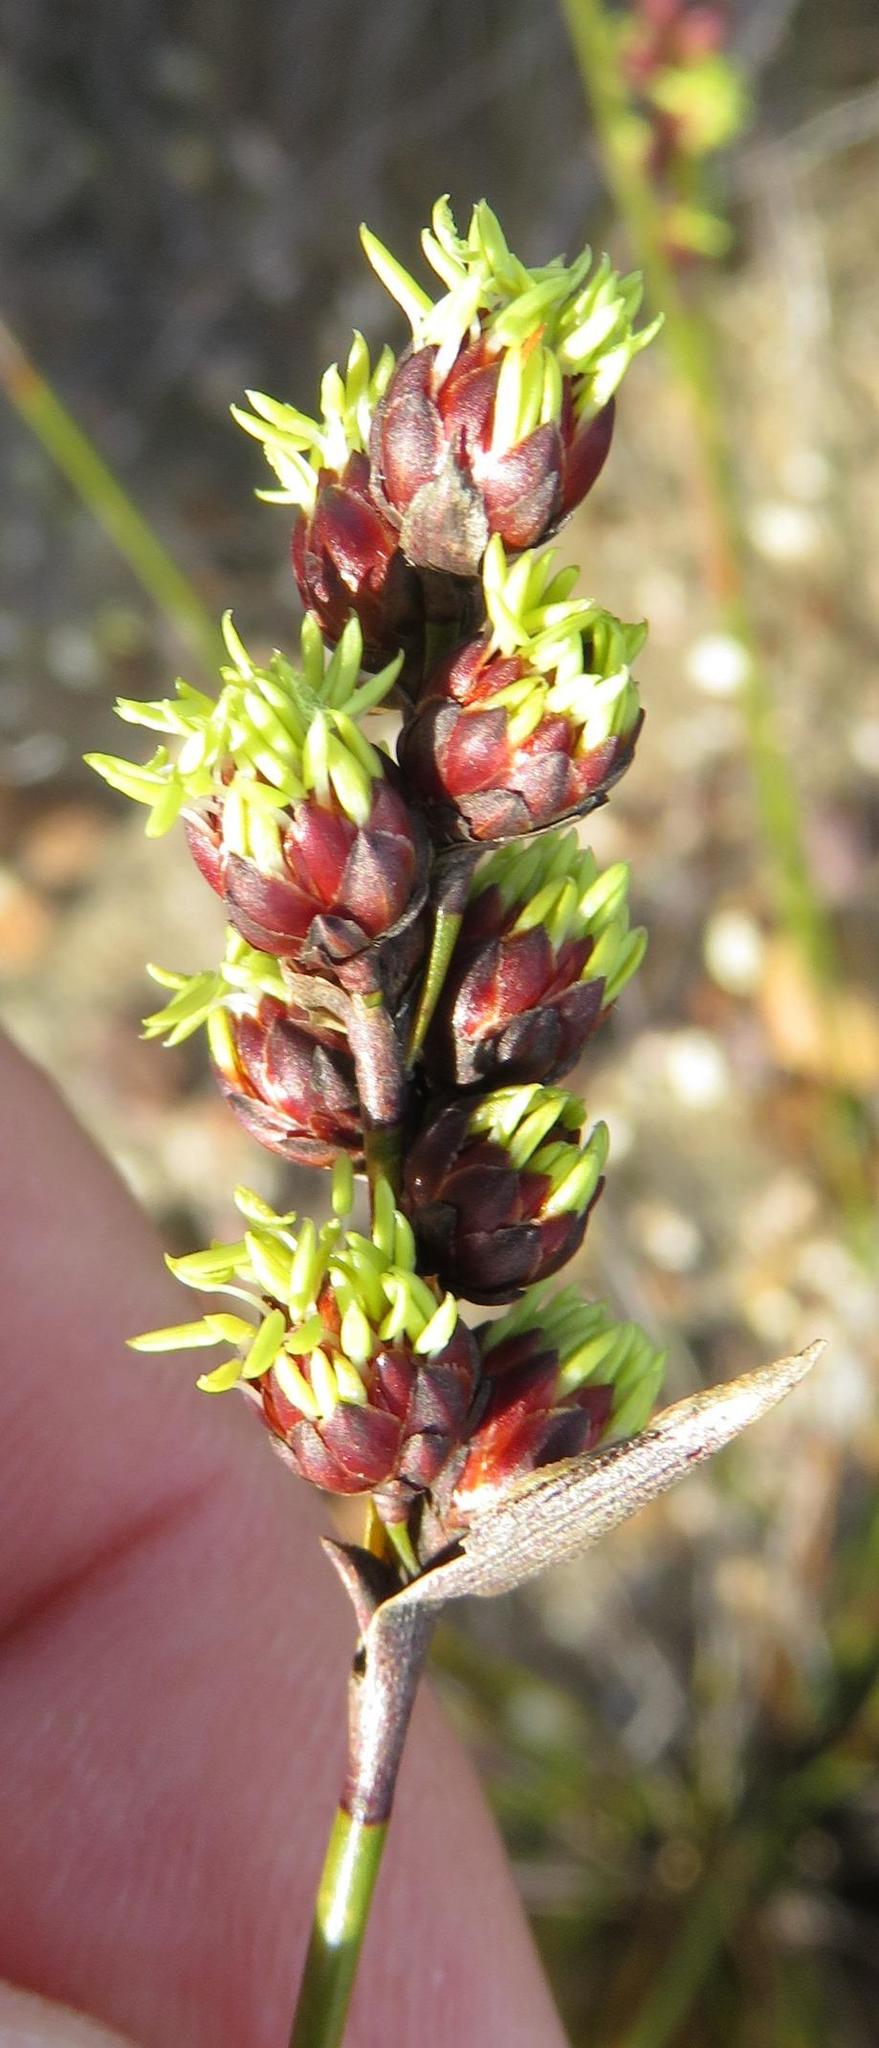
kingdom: Plantae
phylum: Tracheophyta
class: Liliopsida
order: Poales
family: Restionaceae
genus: Hypodiscus
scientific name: Hypodiscus laevigatus
